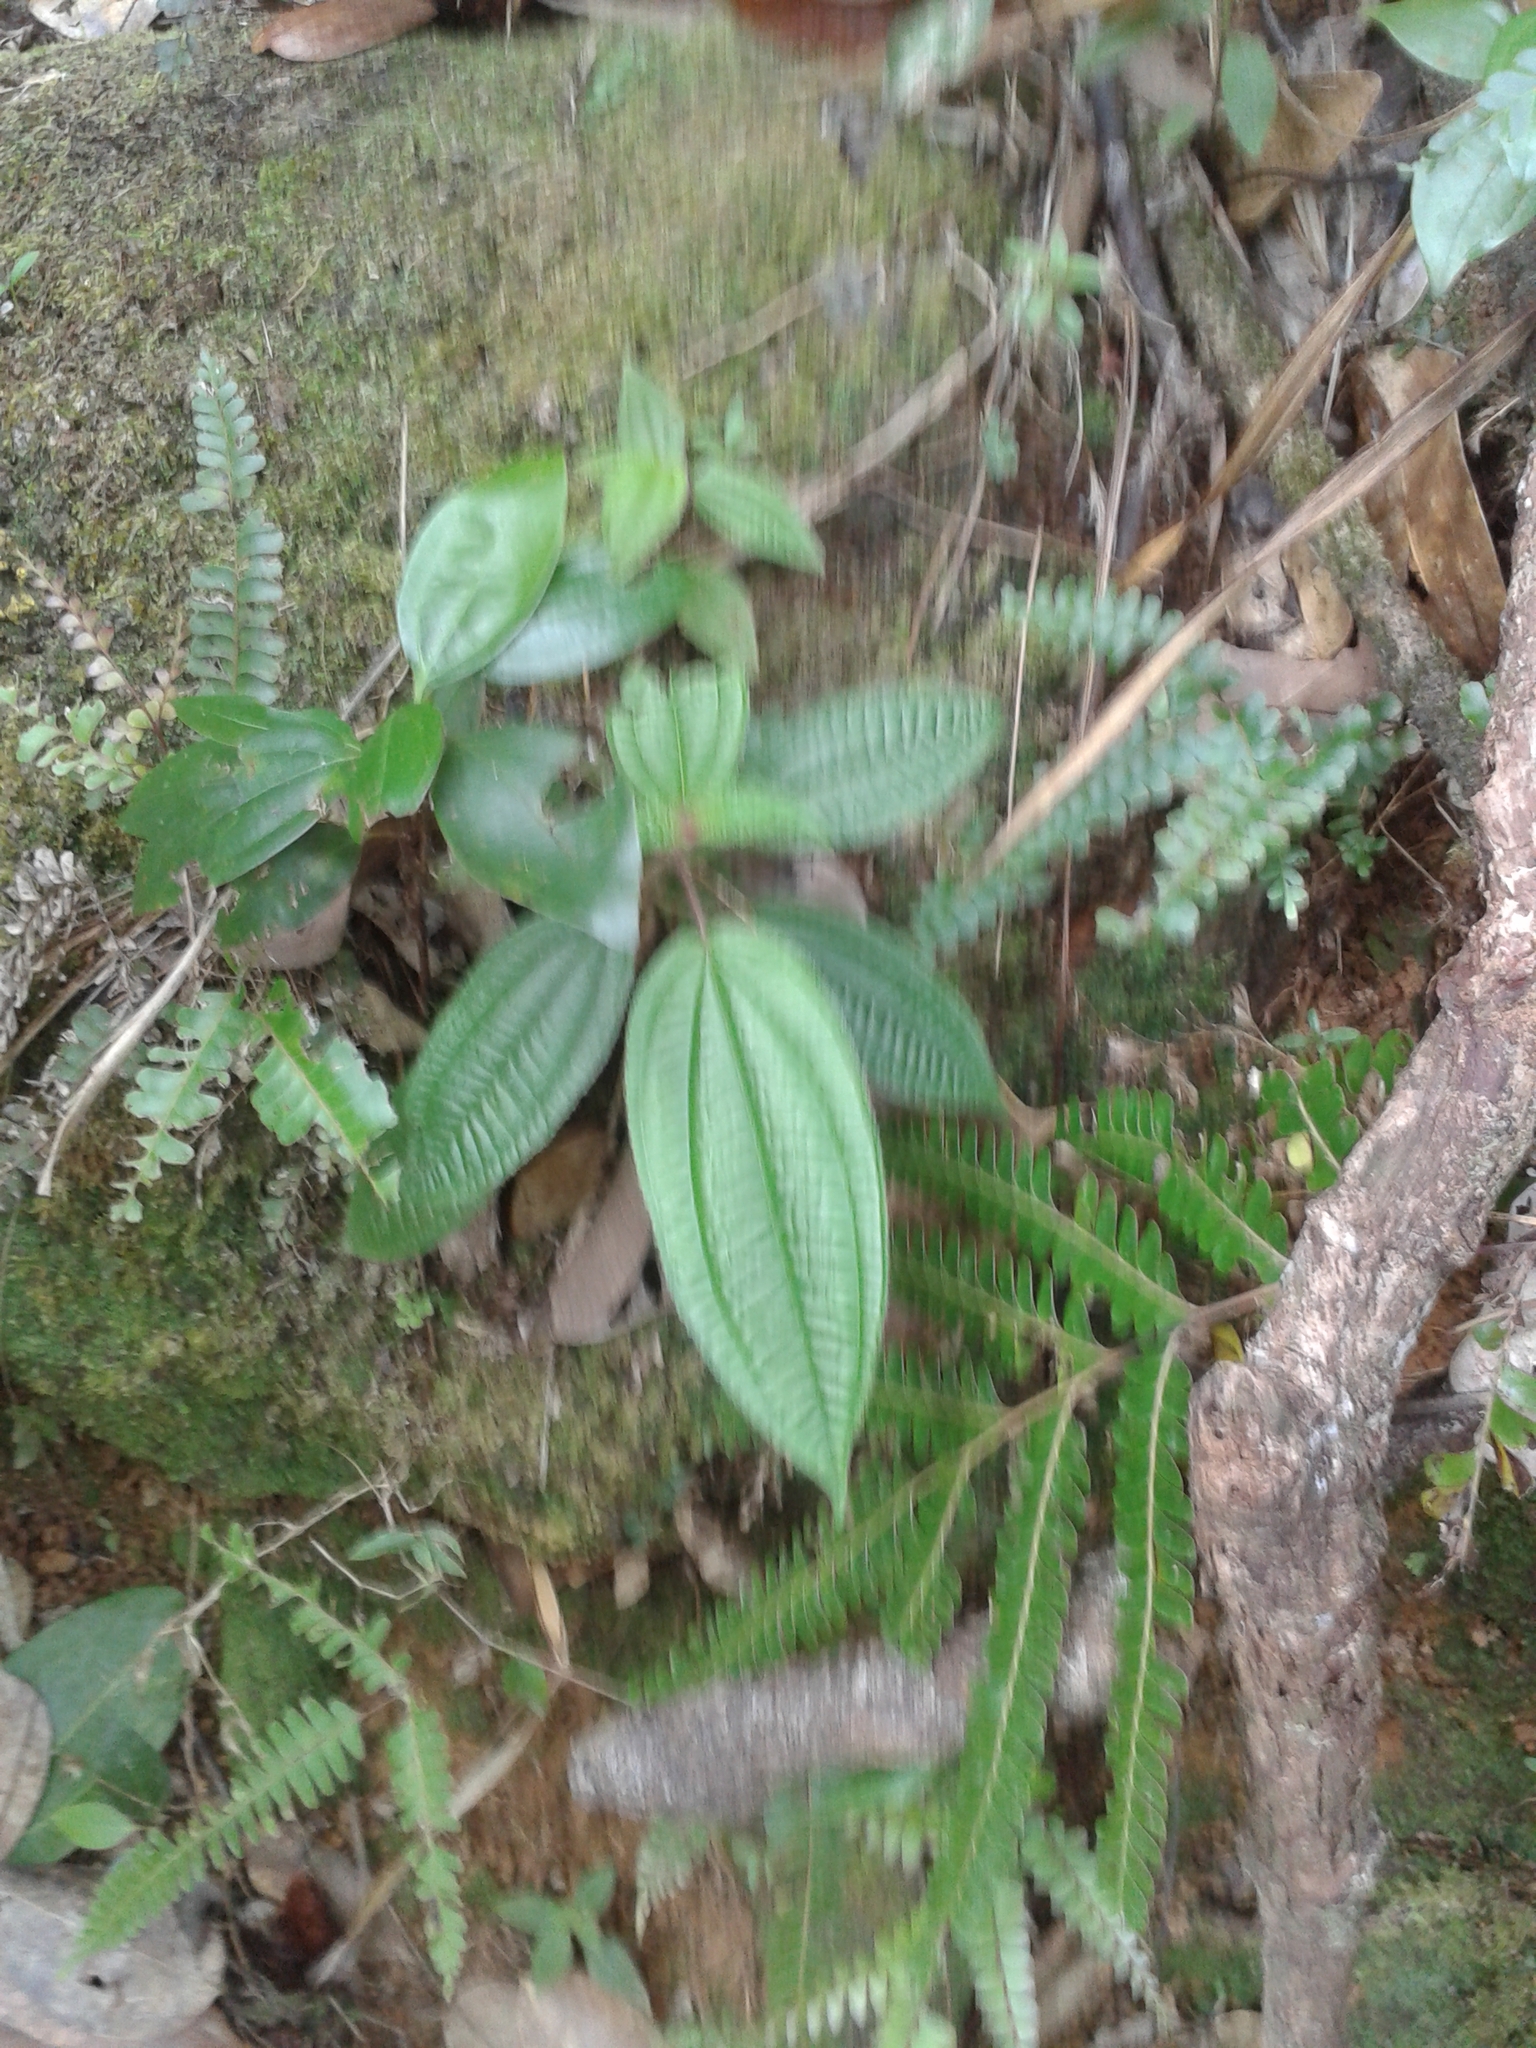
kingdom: Plantae
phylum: Tracheophyta
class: Magnoliopsida
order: Myrtales
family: Melastomataceae
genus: Miconia
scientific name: Miconia crenata
